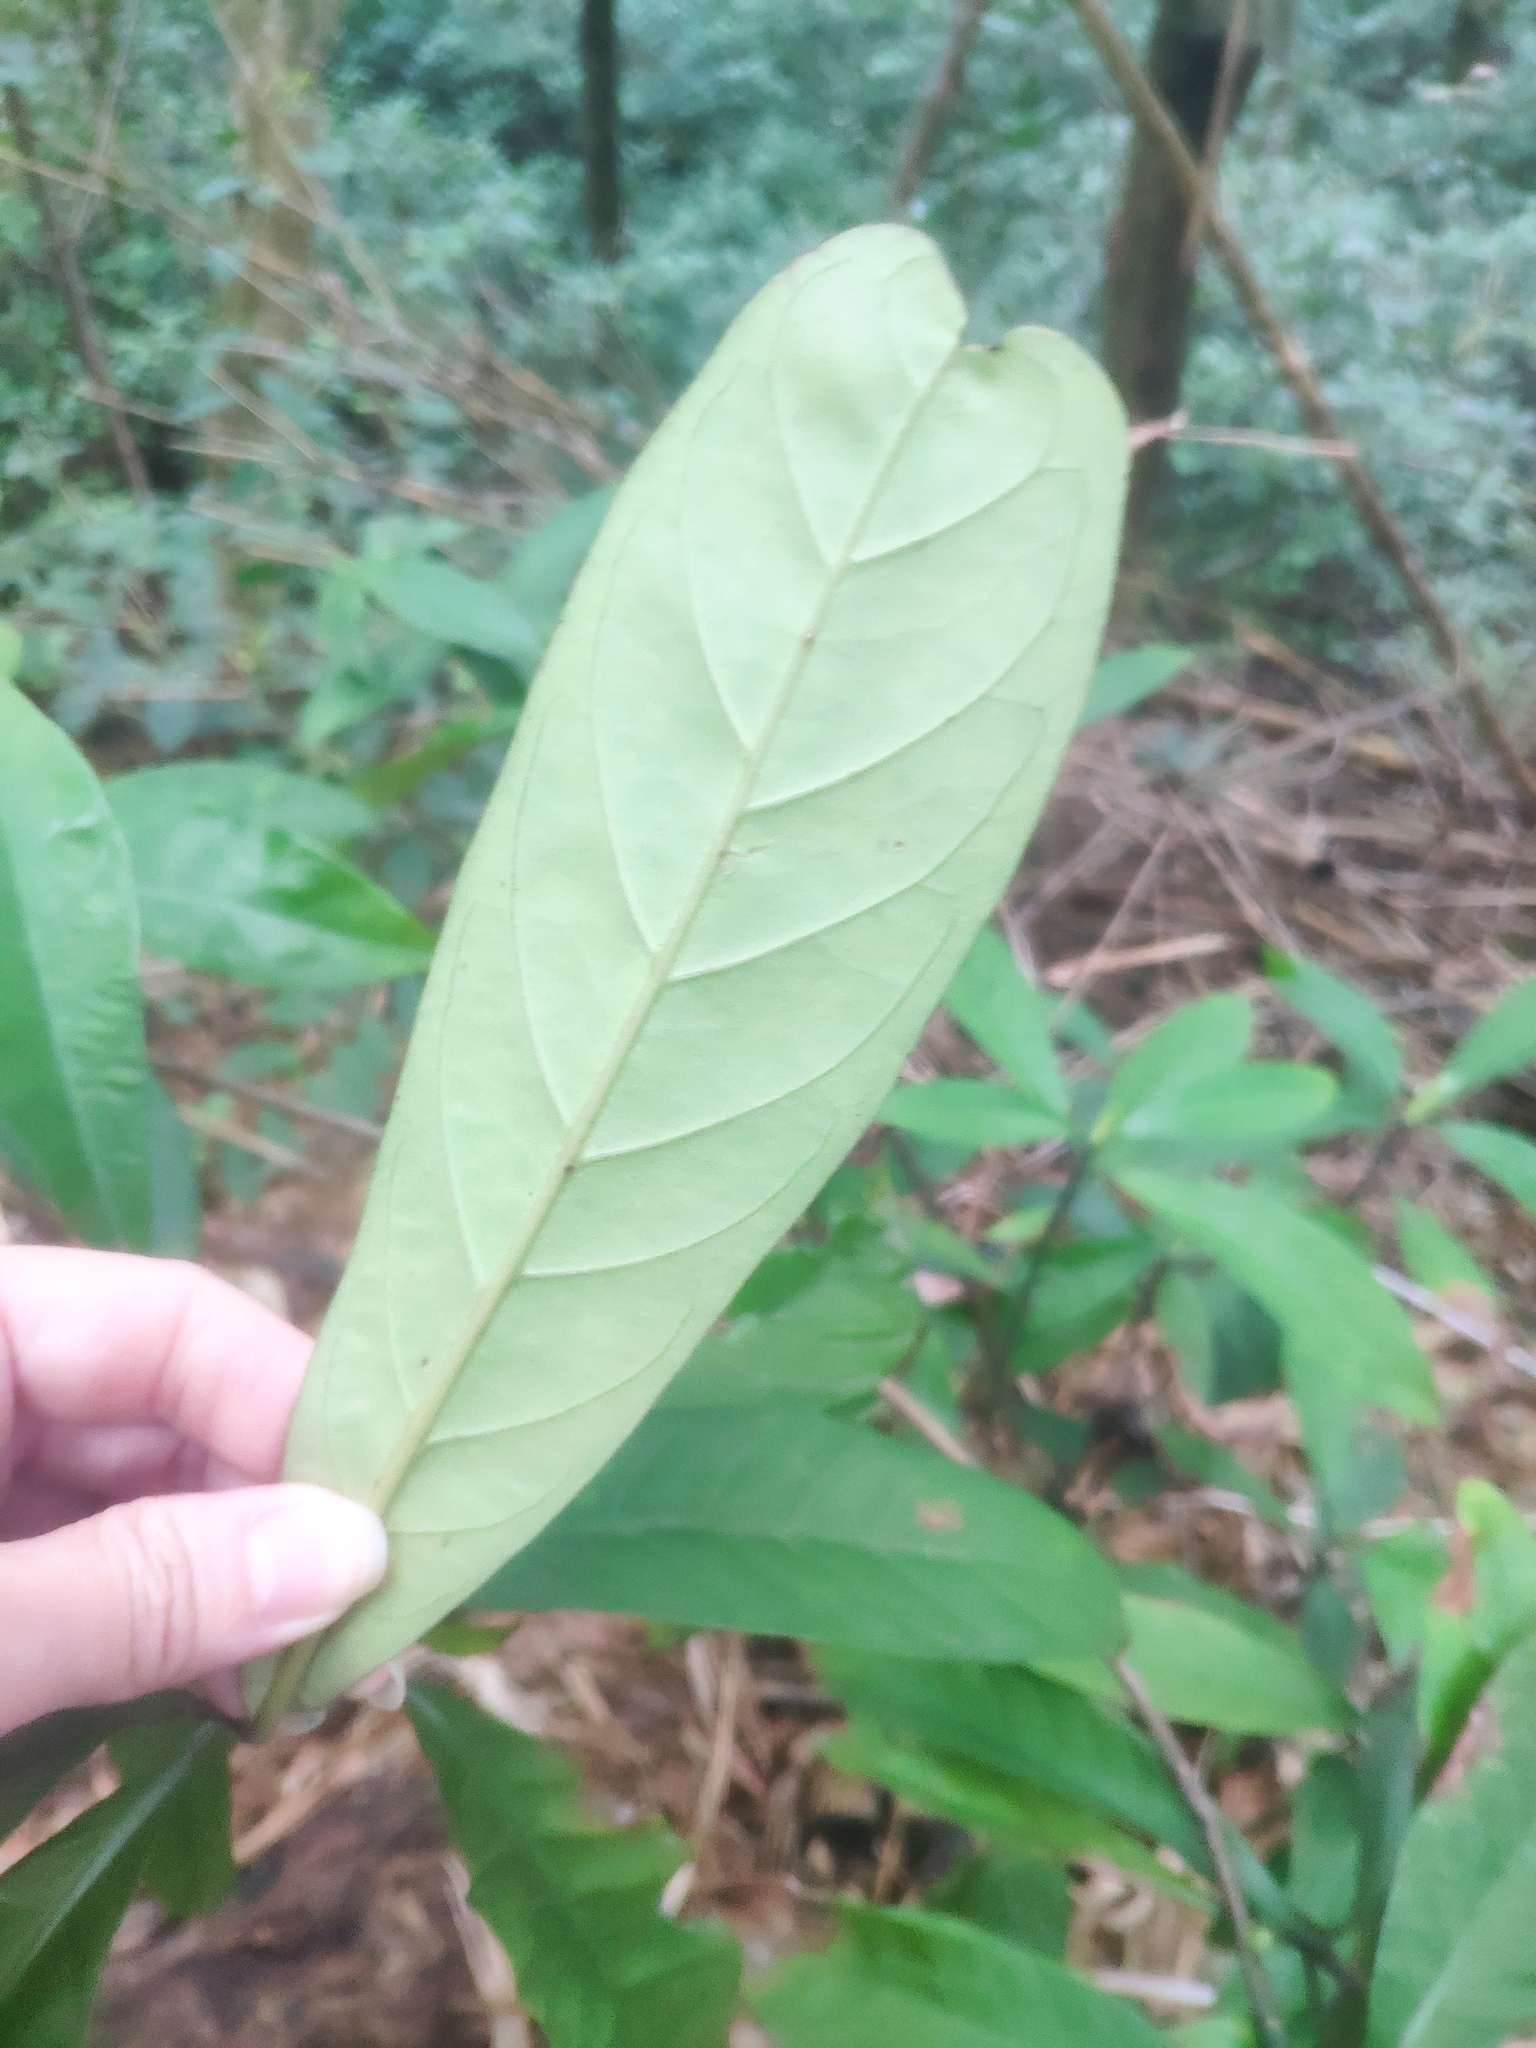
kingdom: Plantae
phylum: Tracheophyta
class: Magnoliopsida
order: Gentianales
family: Rubiaceae
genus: Psychotria
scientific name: Psychotria asiatica
